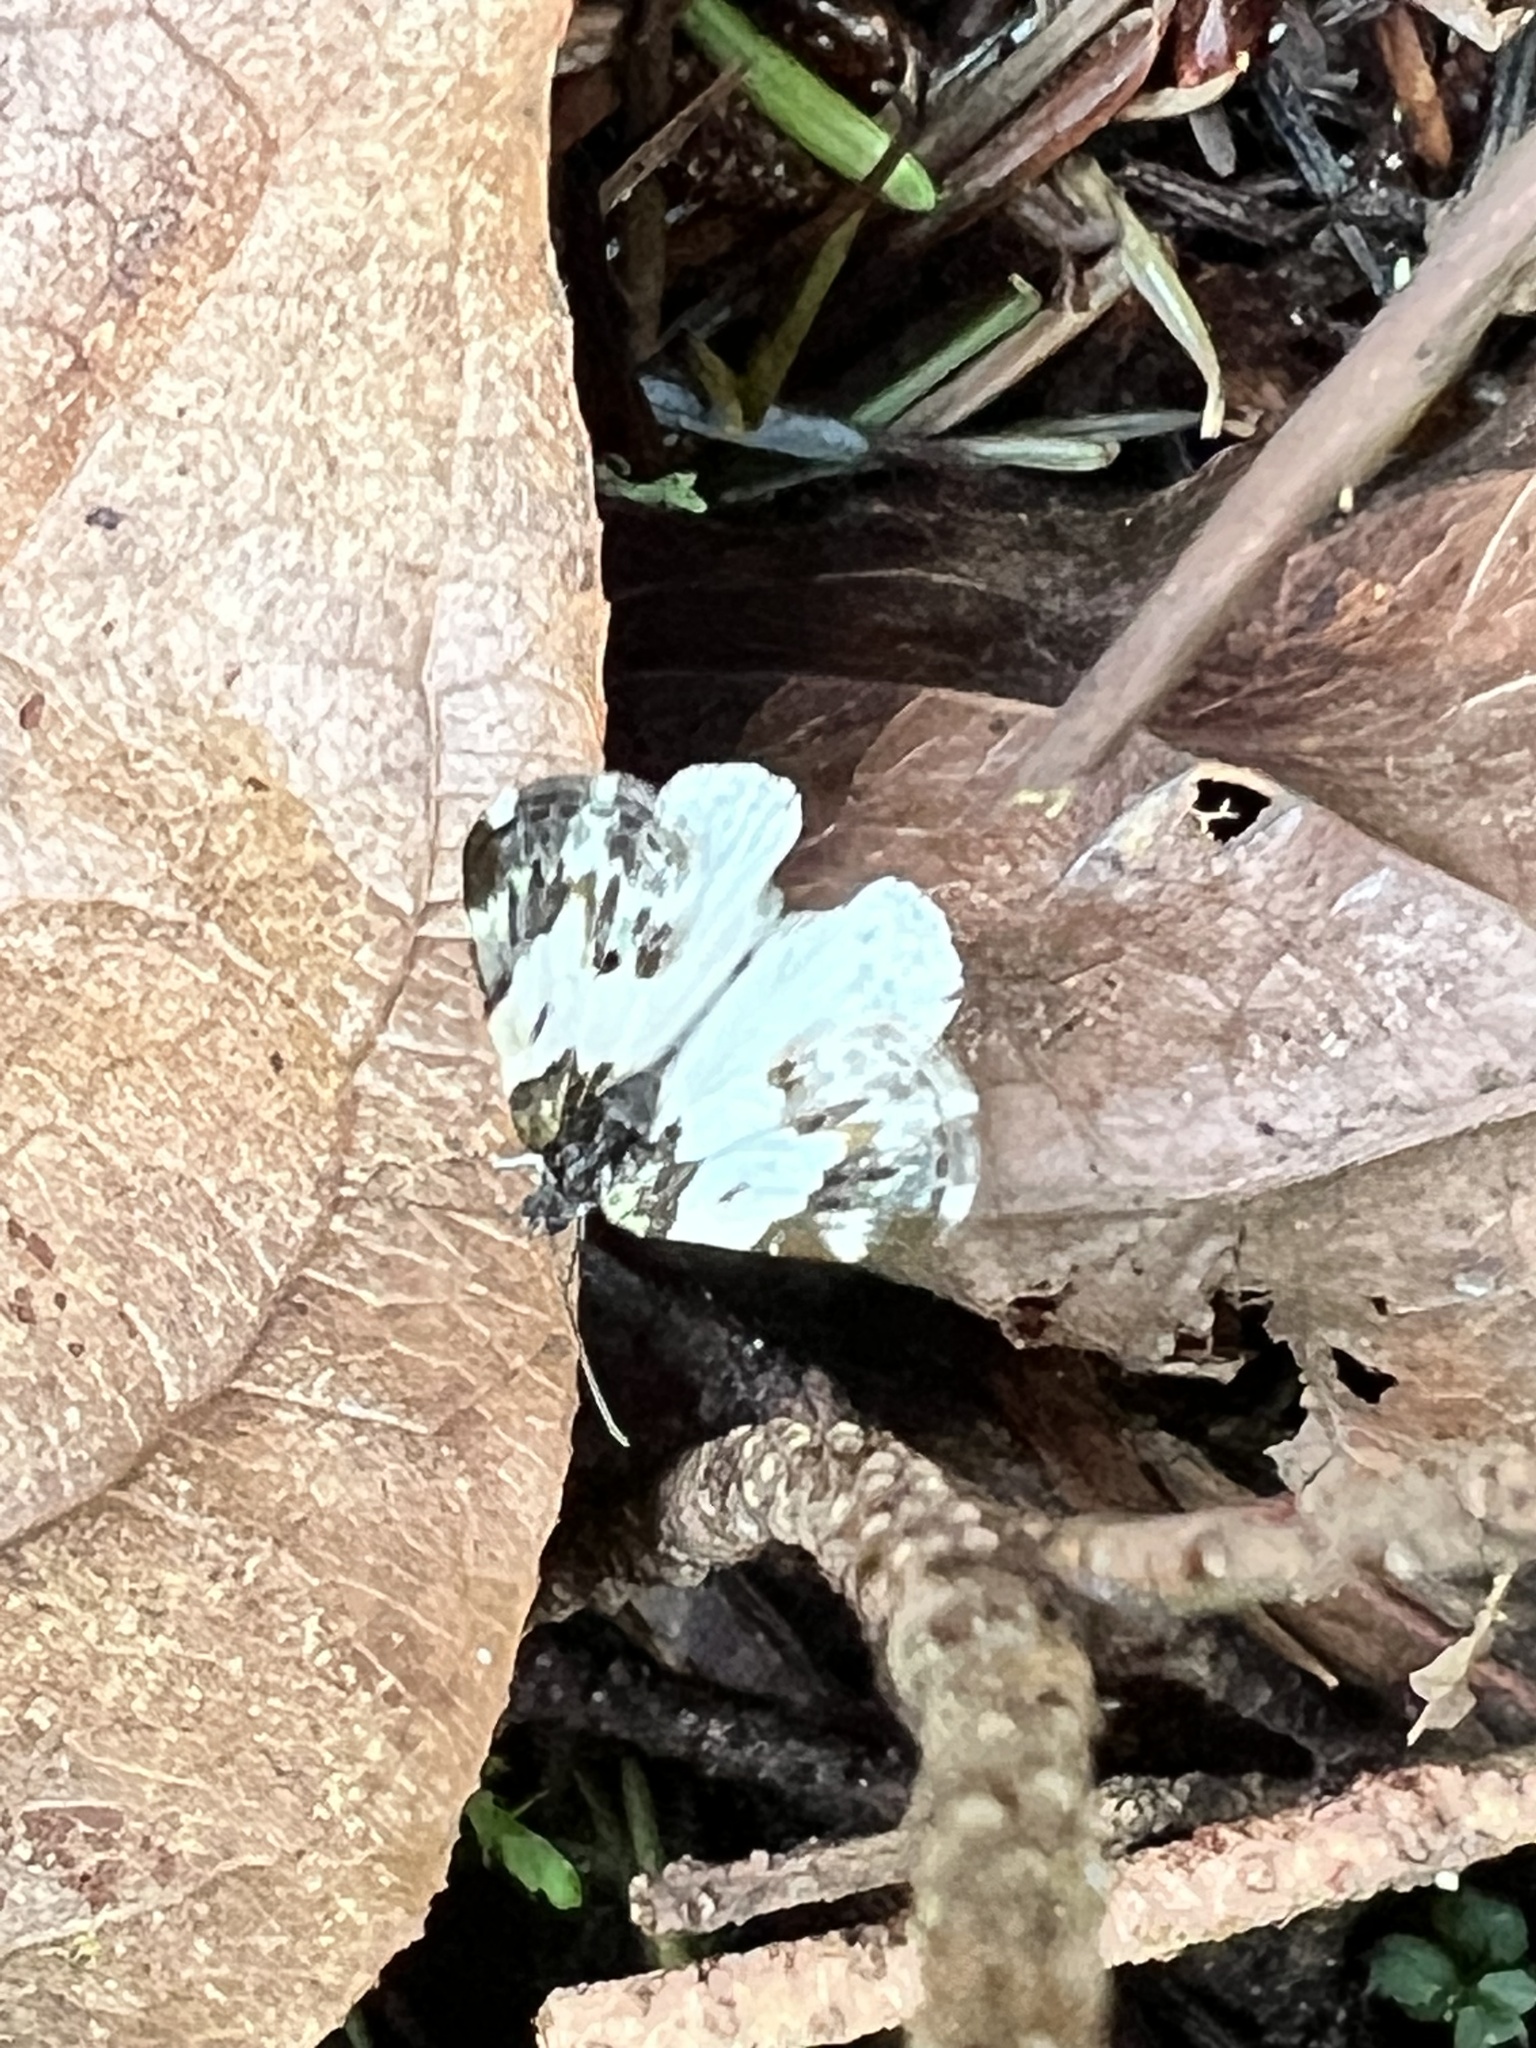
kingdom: Animalia
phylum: Arthropoda
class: Insecta
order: Lepidoptera
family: Geometridae
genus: Mesoleuca
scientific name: Mesoleuca gratulata
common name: Half-white carpet moth
